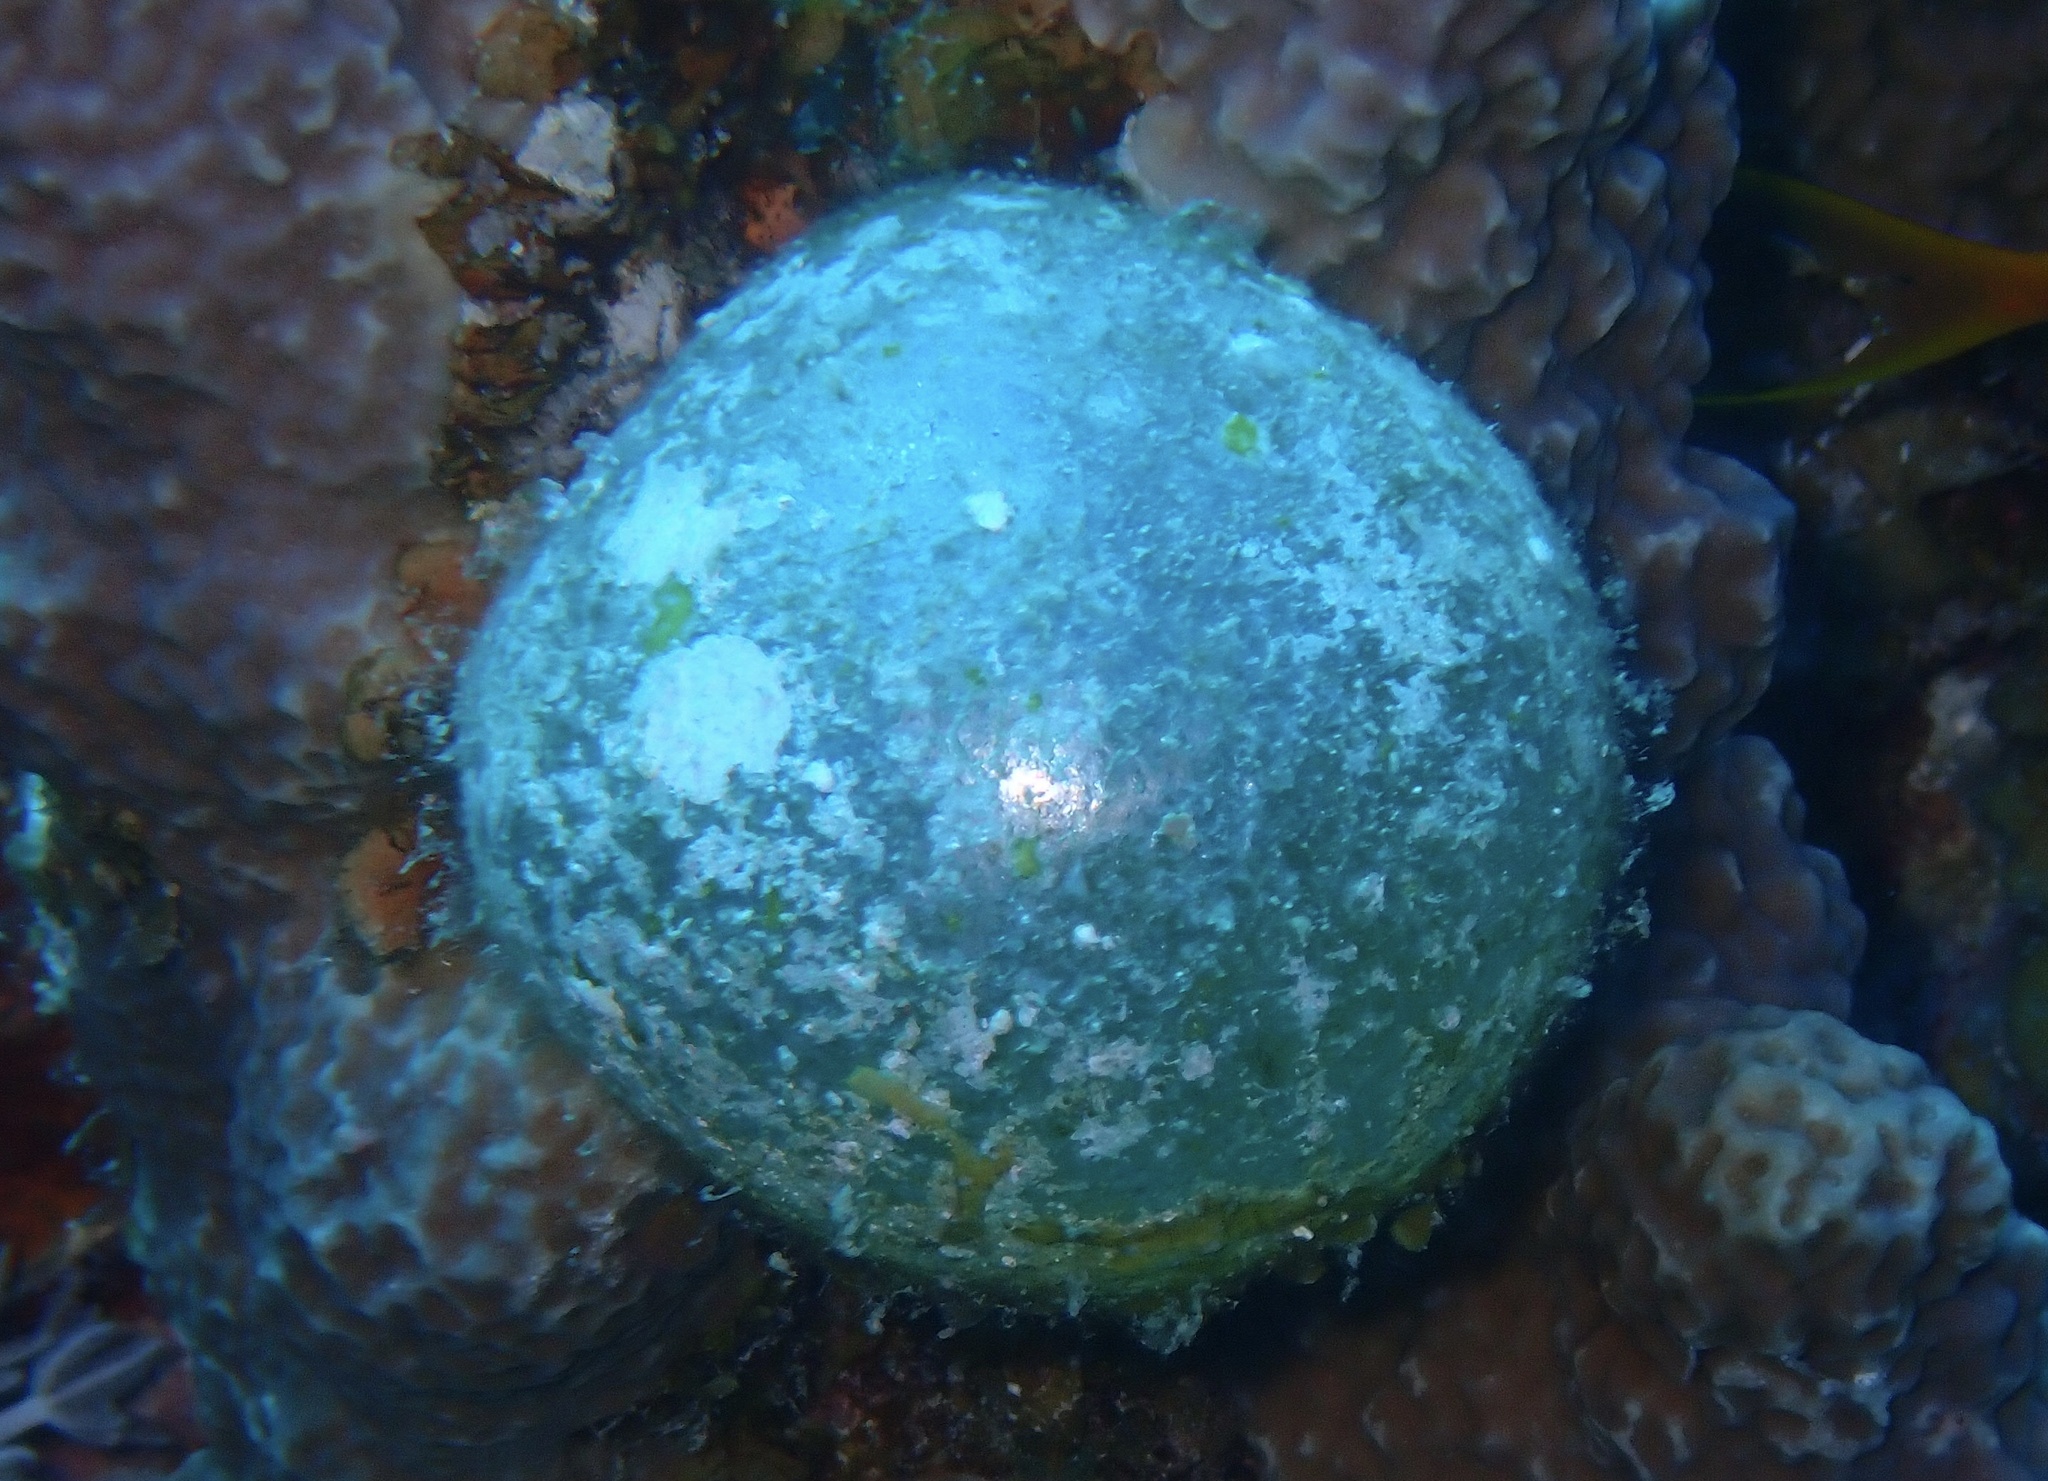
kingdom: Plantae
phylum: Chlorophyta
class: Ulvophyceae
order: Siphonocladales
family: Valoniaceae
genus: Valonia
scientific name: Valonia ventricosa
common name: Sea pearl
